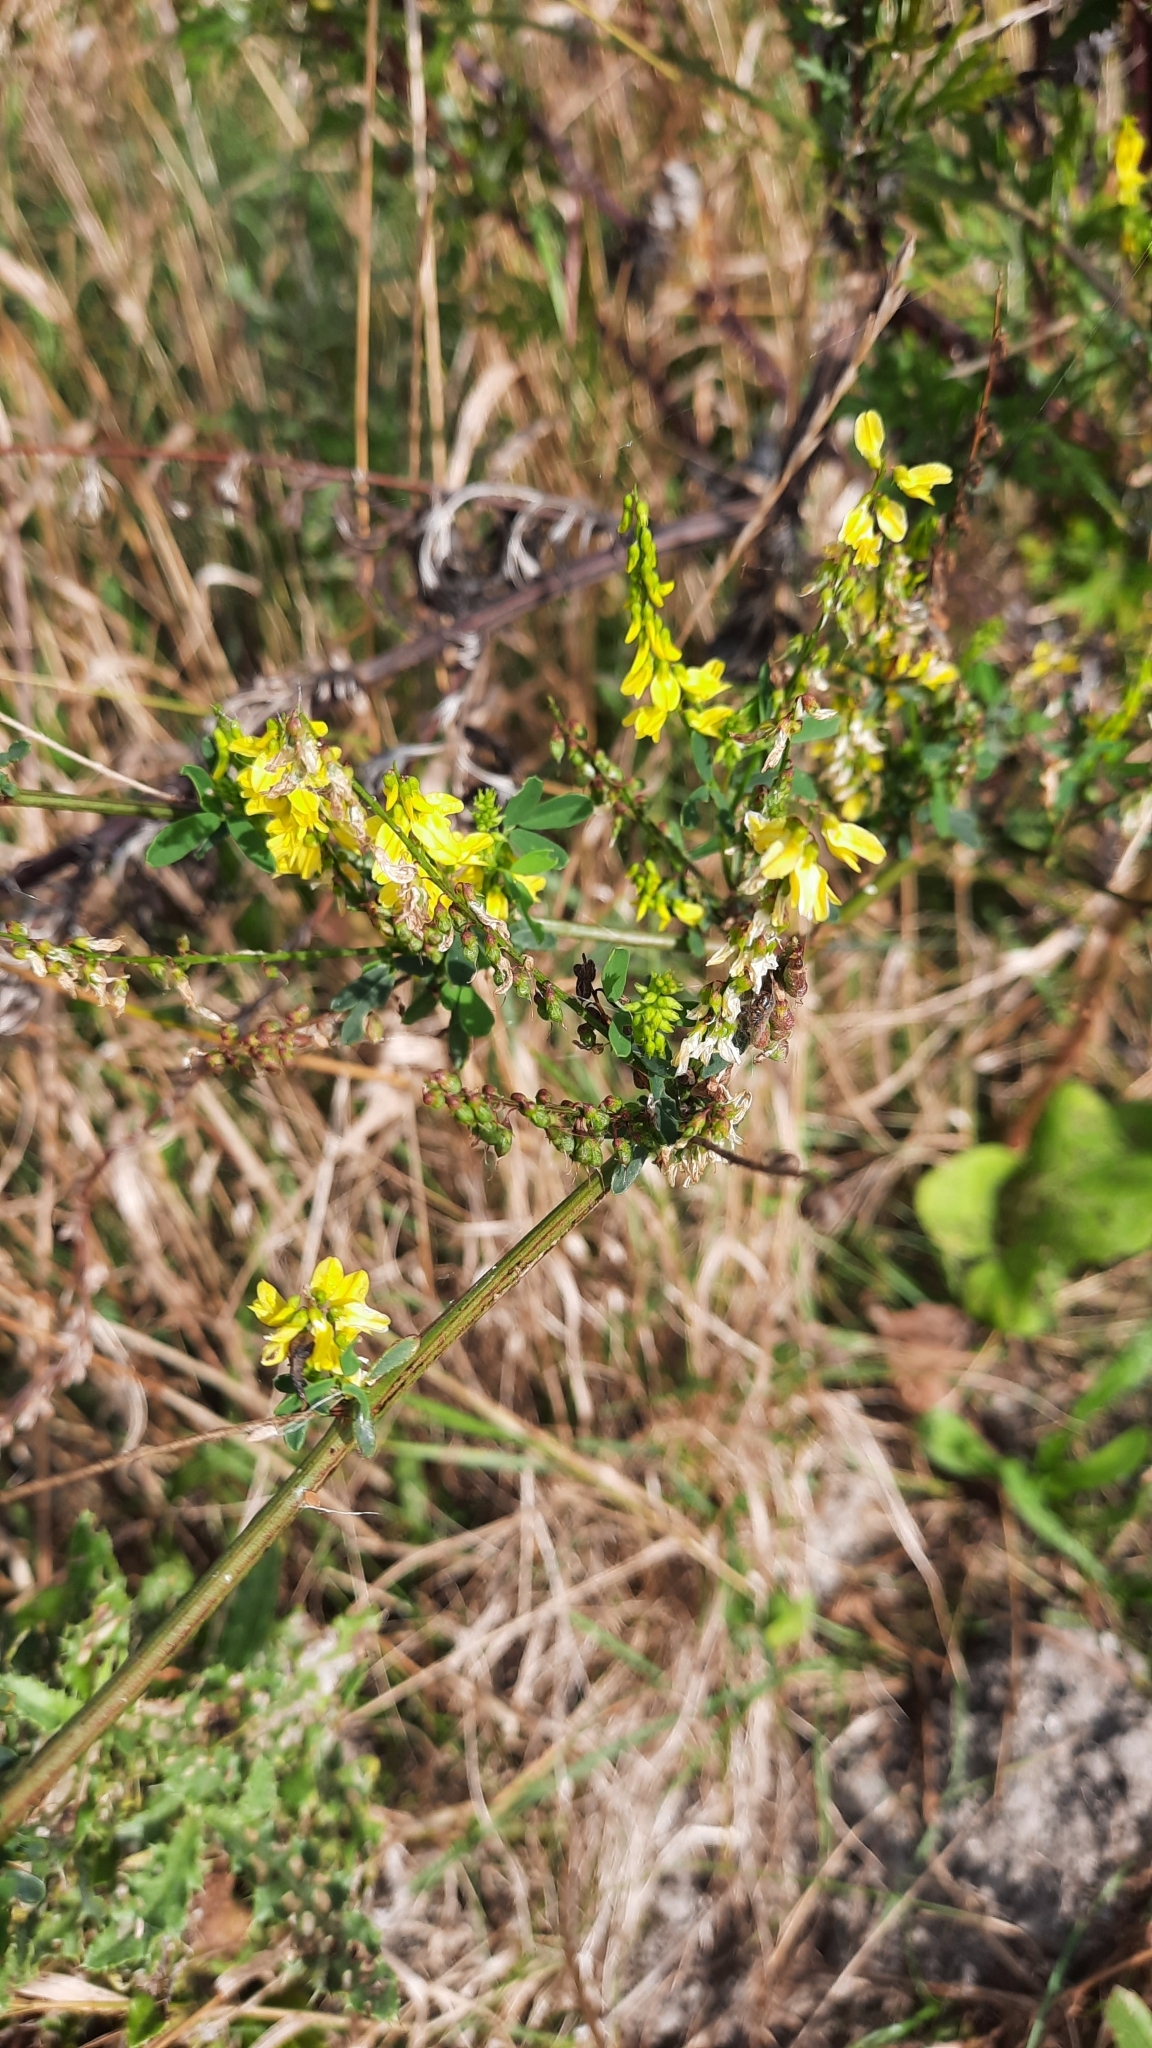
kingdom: Plantae
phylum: Tracheophyta
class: Magnoliopsida
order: Fabales
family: Fabaceae
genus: Melilotus
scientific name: Melilotus officinalis
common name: Sweetclover
